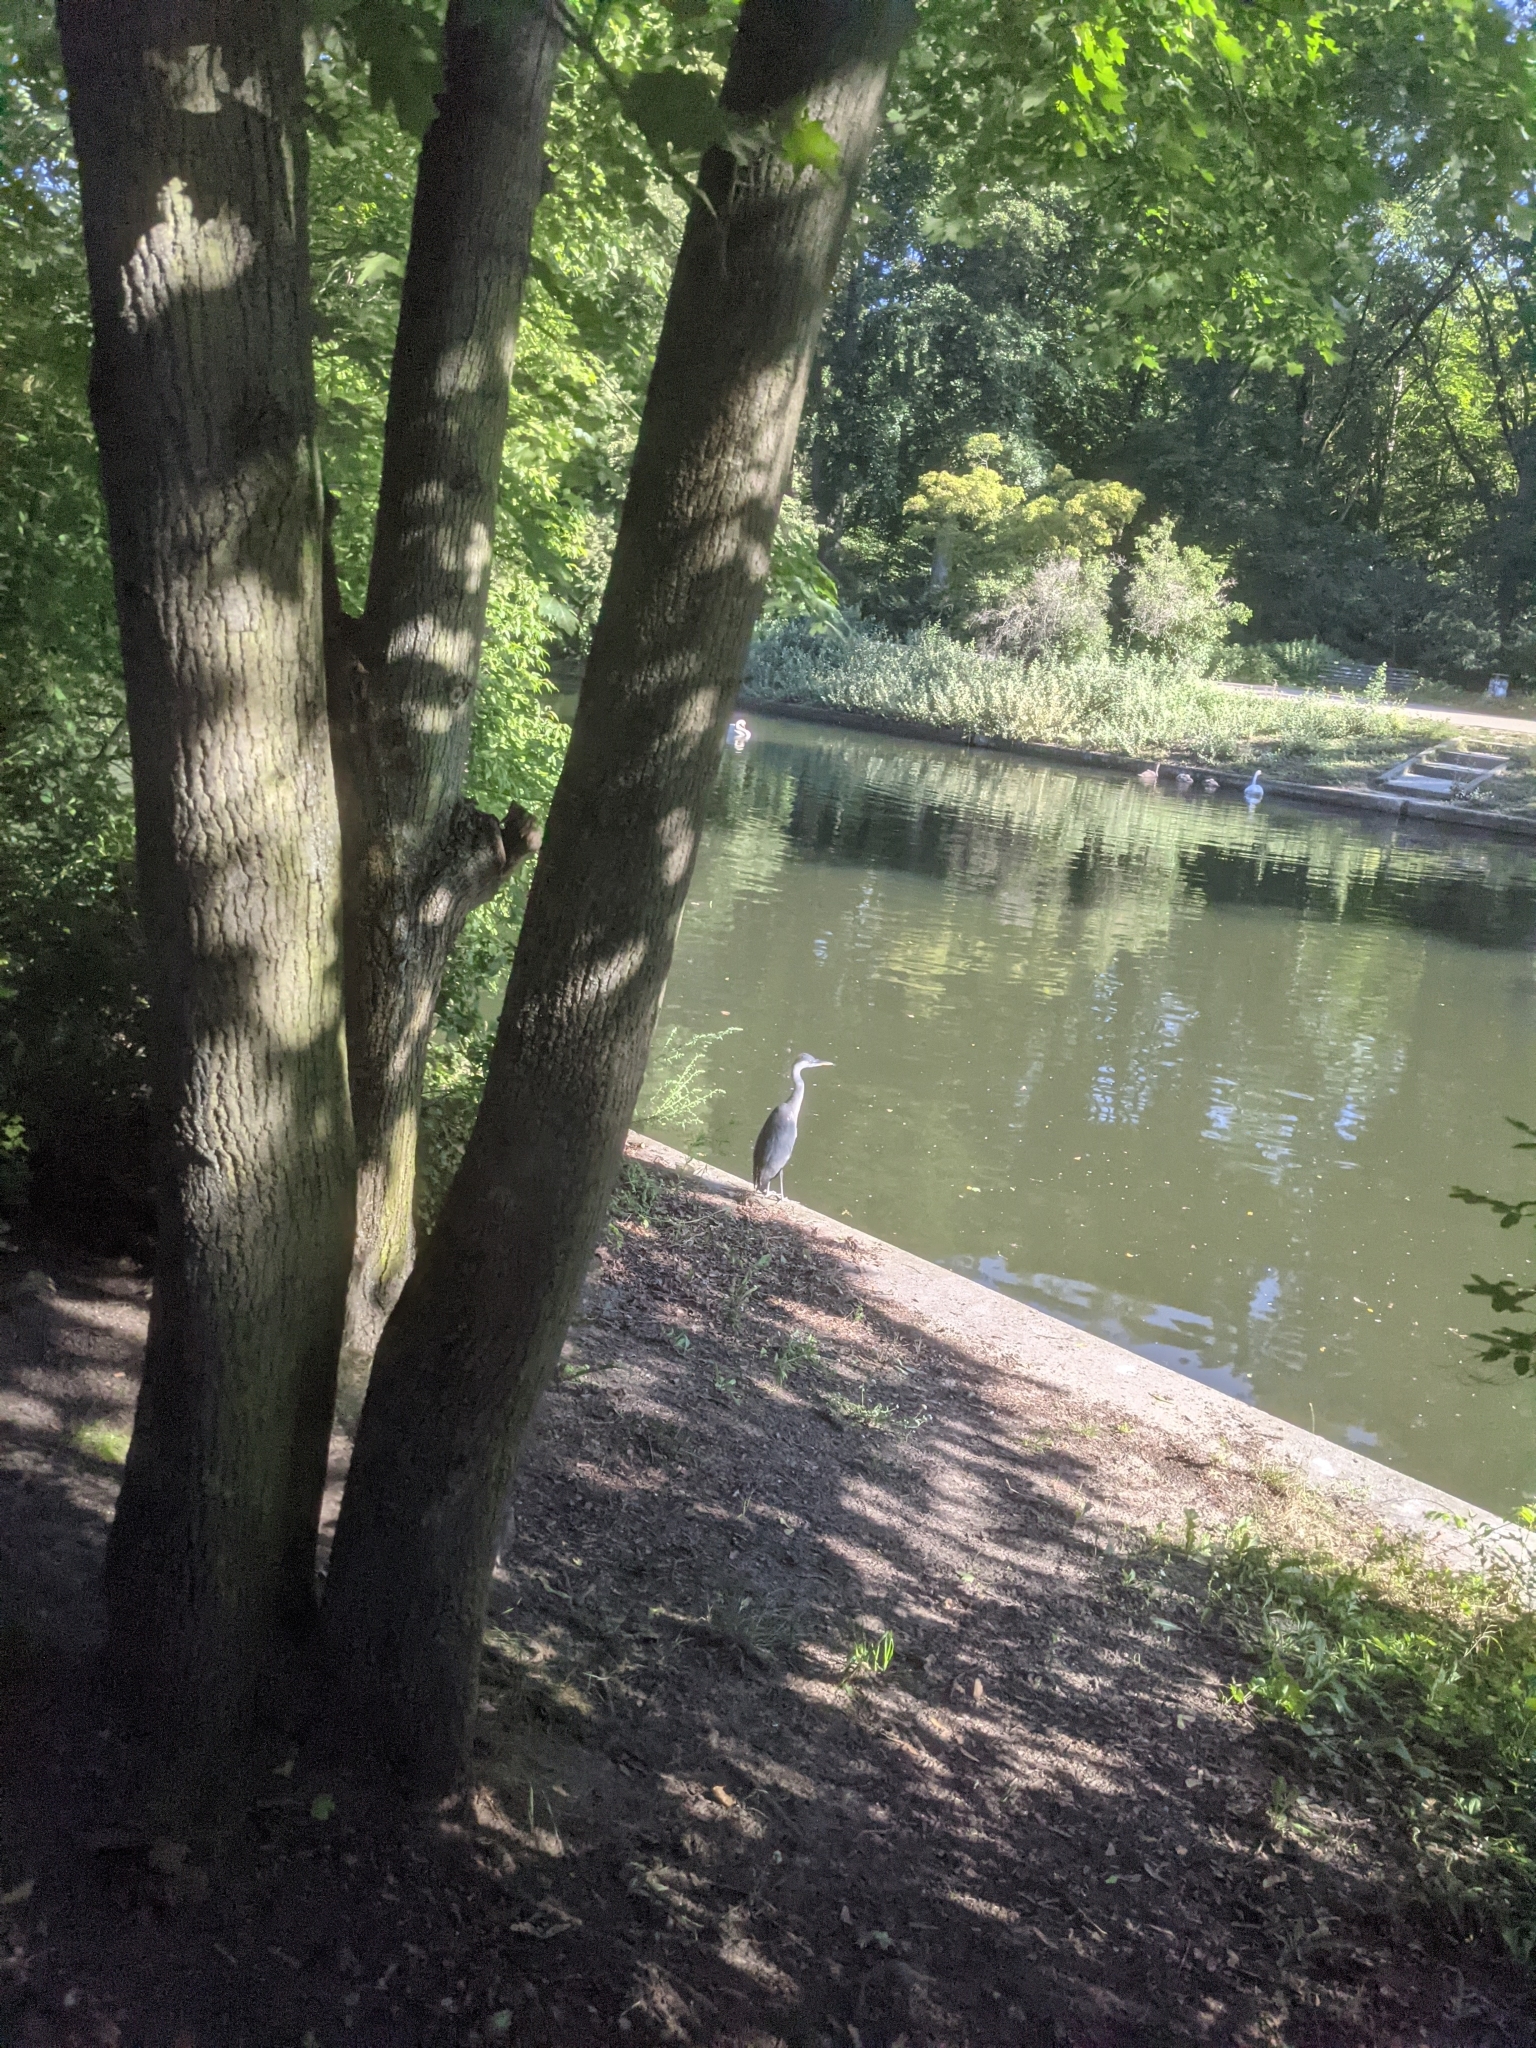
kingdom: Animalia
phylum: Chordata
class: Aves
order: Pelecaniformes
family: Ardeidae
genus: Ardea
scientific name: Ardea cinerea
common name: Grey heron
